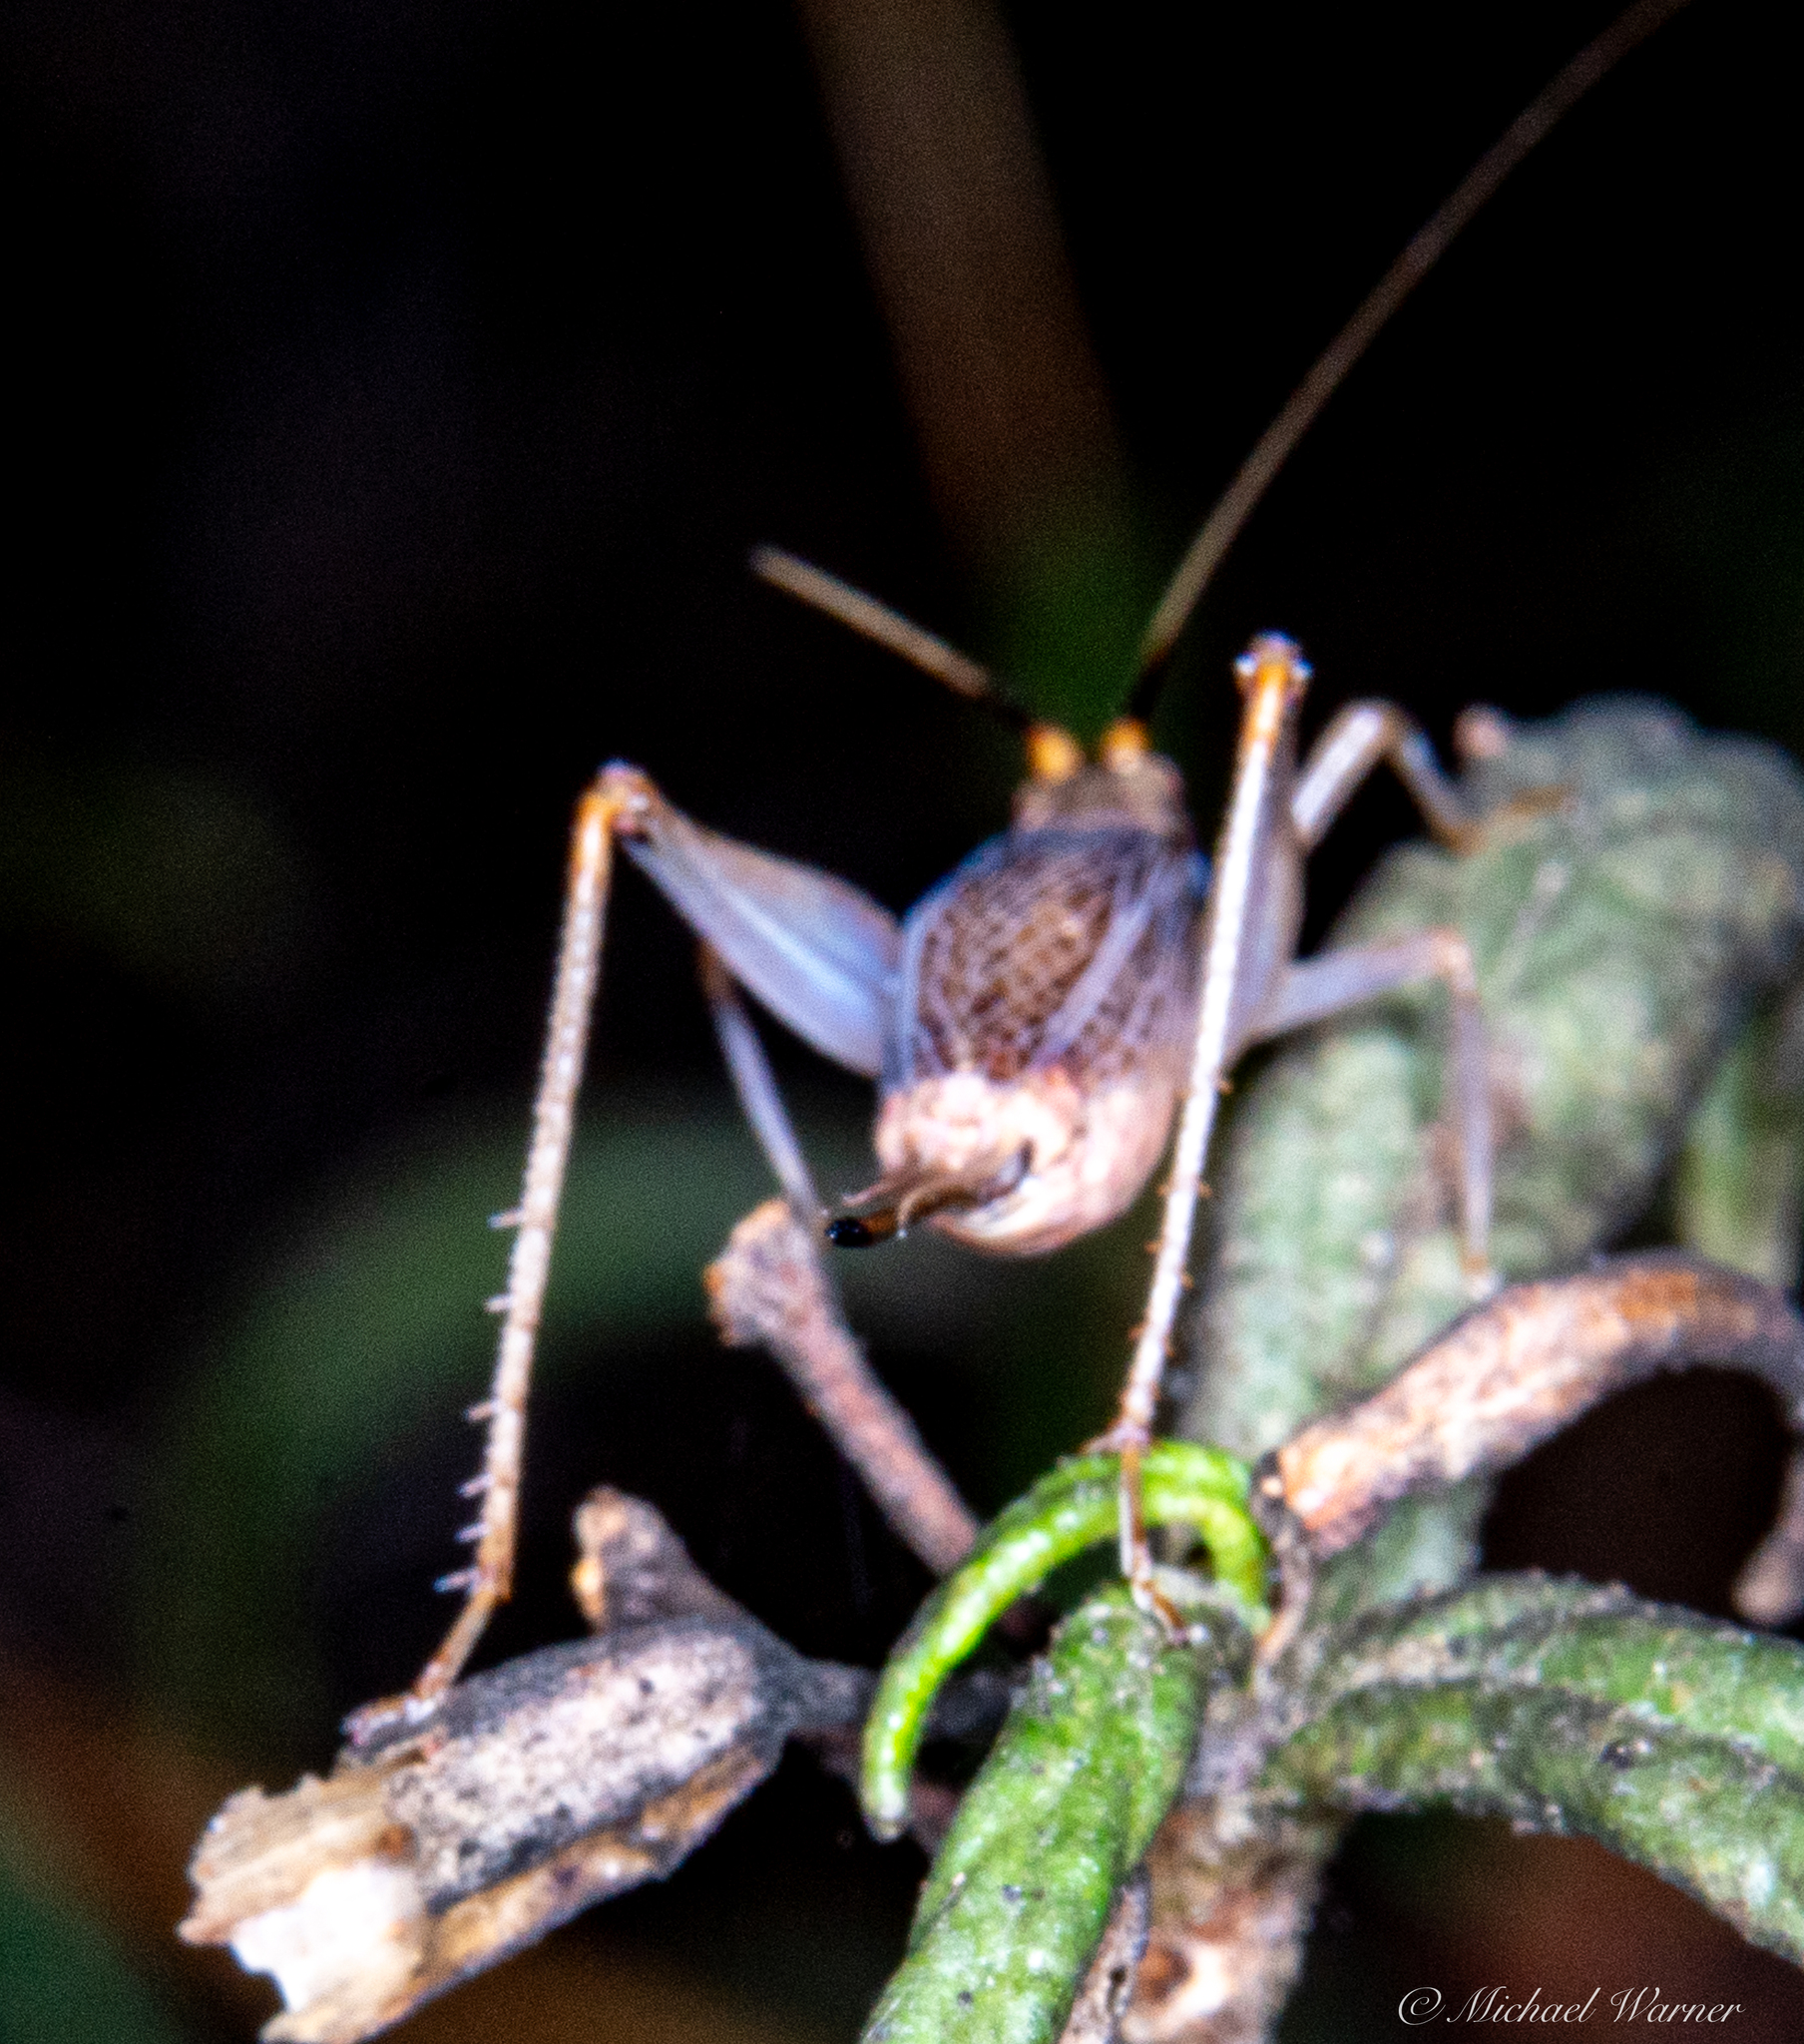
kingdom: Animalia
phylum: Arthropoda
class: Insecta
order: Orthoptera
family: Gryllidae
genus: Oecanthus
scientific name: Oecanthus californicus
